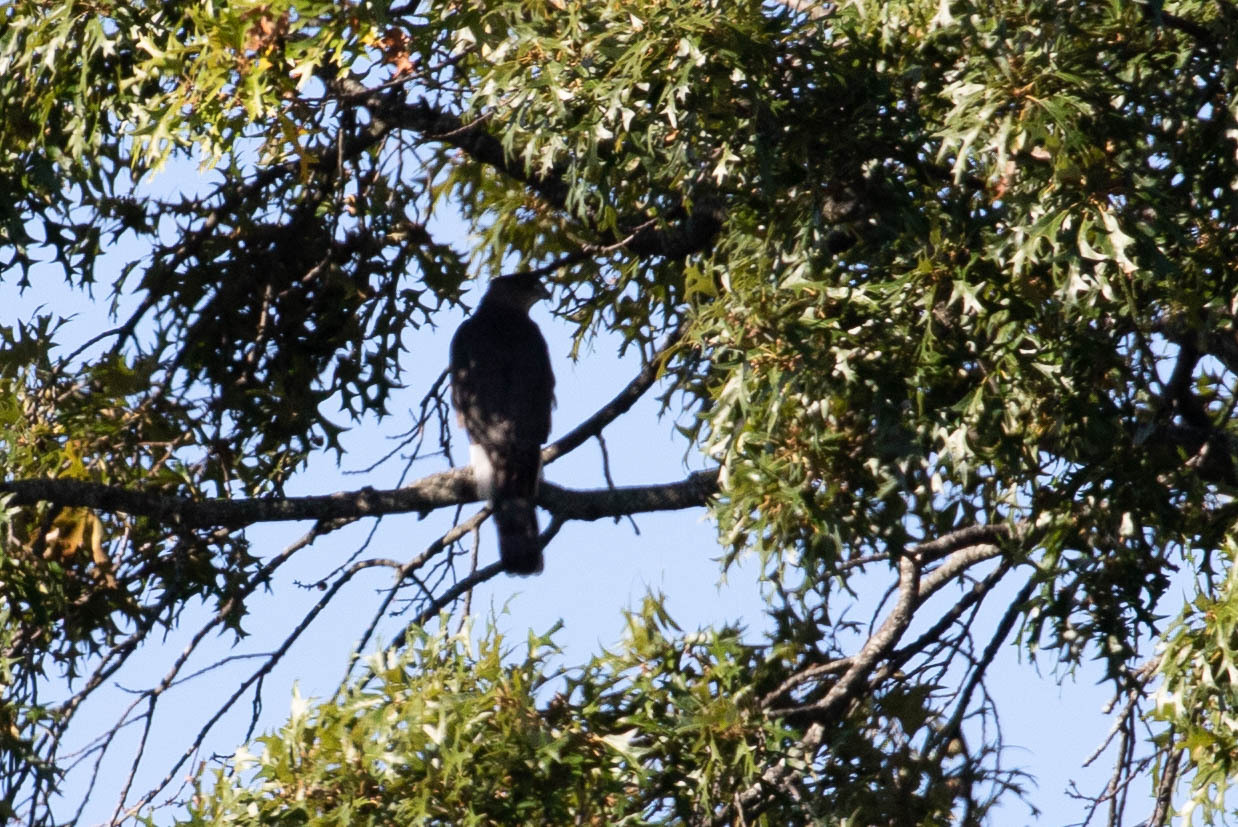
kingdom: Animalia
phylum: Chordata
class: Aves
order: Accipitriformes
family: Accipitridae
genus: Accipiter
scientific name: Accipiter cooperii
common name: Cooper's hawk
